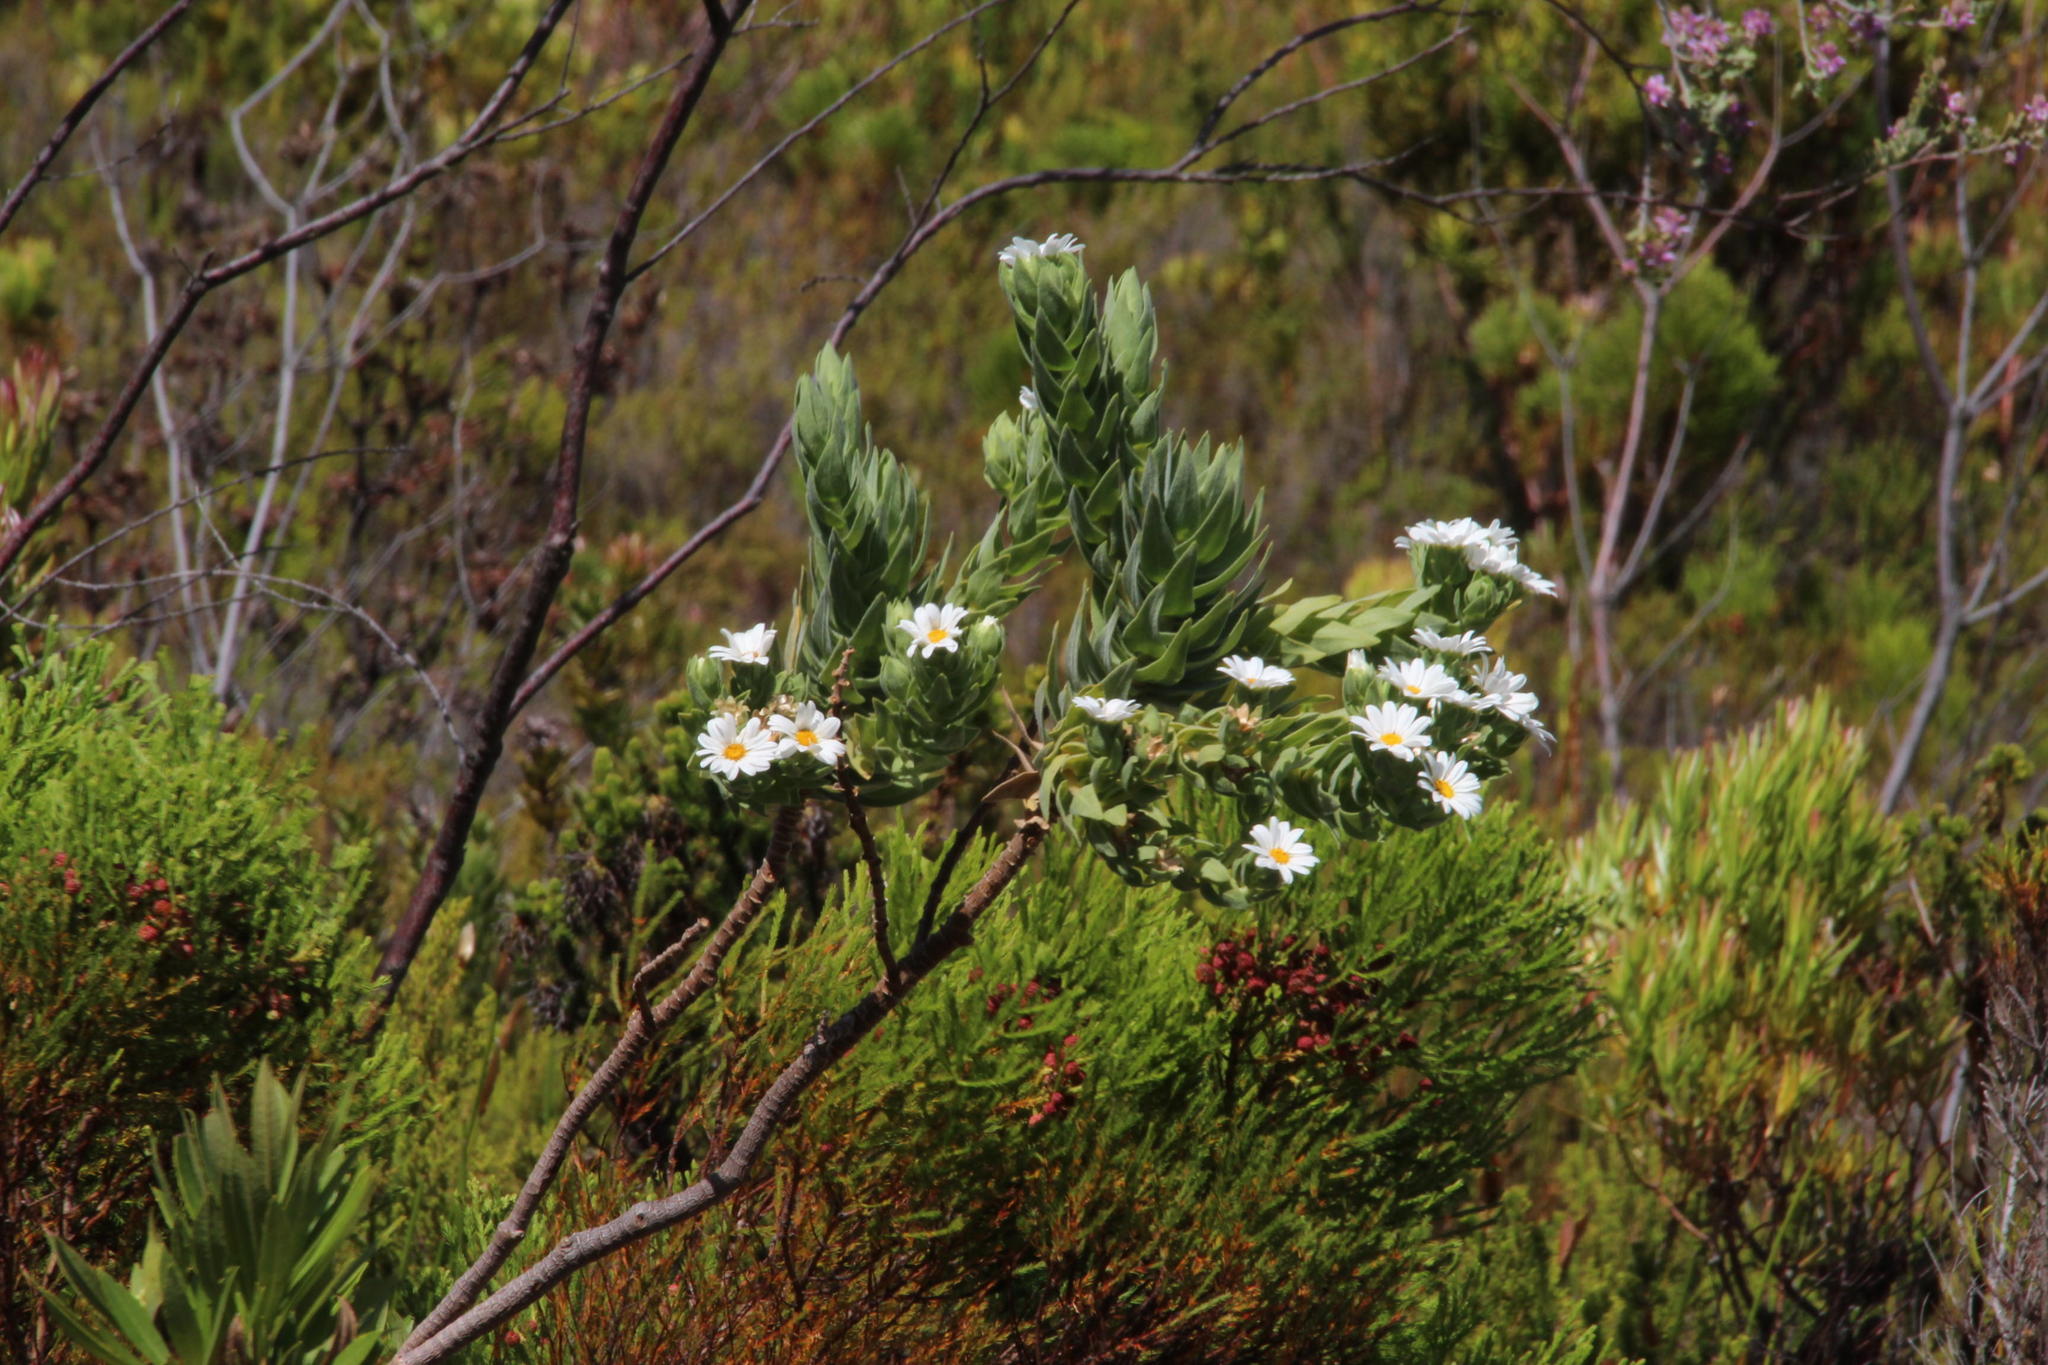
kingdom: Plantae
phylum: Tracheophyta
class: Magnoliopsida
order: Asterales
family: Asteraceae
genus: Osmitopsis
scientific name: Osmitopsis asteriscoides
